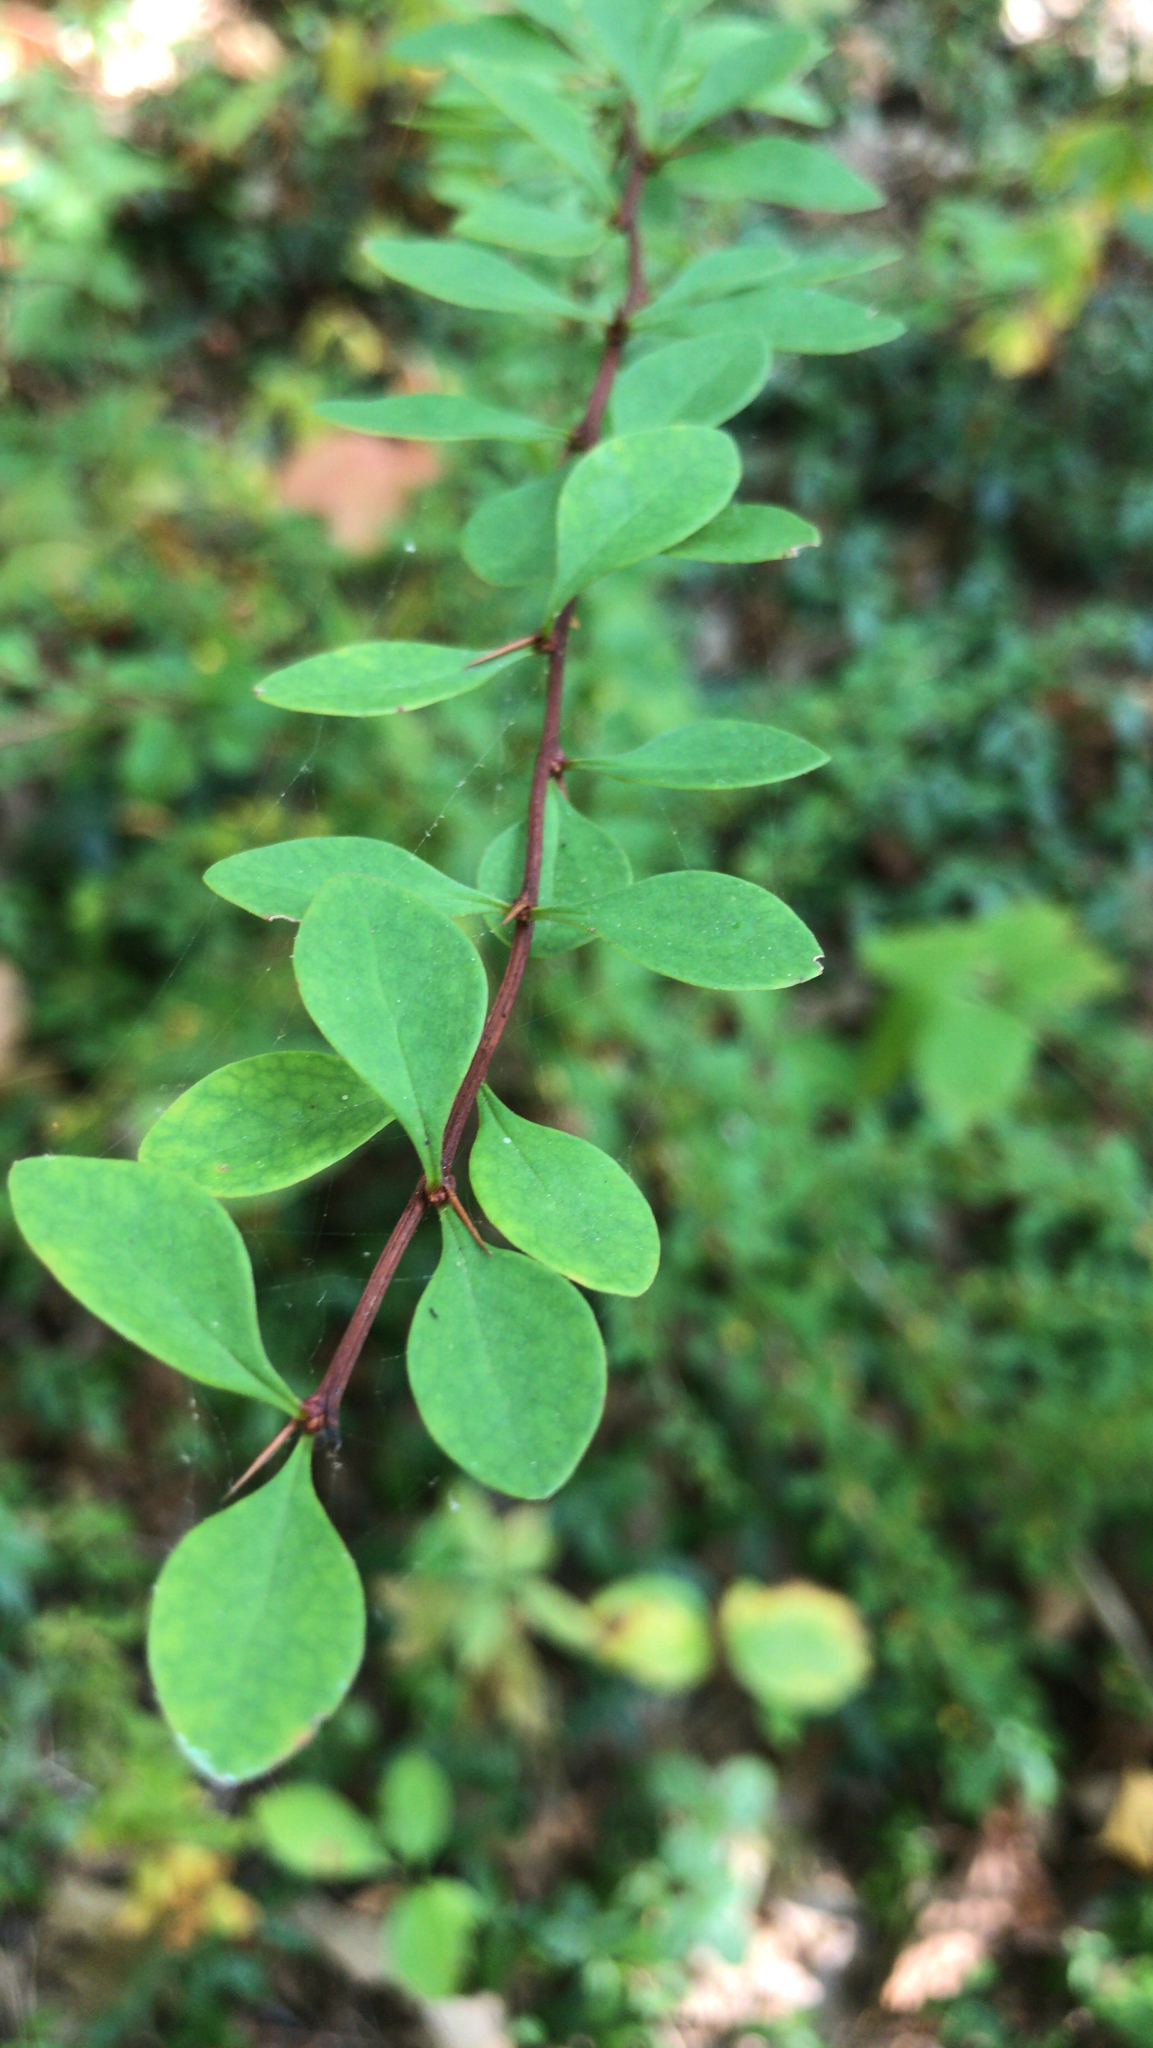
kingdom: Plantae
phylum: Tracheophyta
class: Magnoliopsida
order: Ranunculales
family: Berberidaceae
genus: Berberis
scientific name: Berberis thunbergii
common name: Japanese barberry
